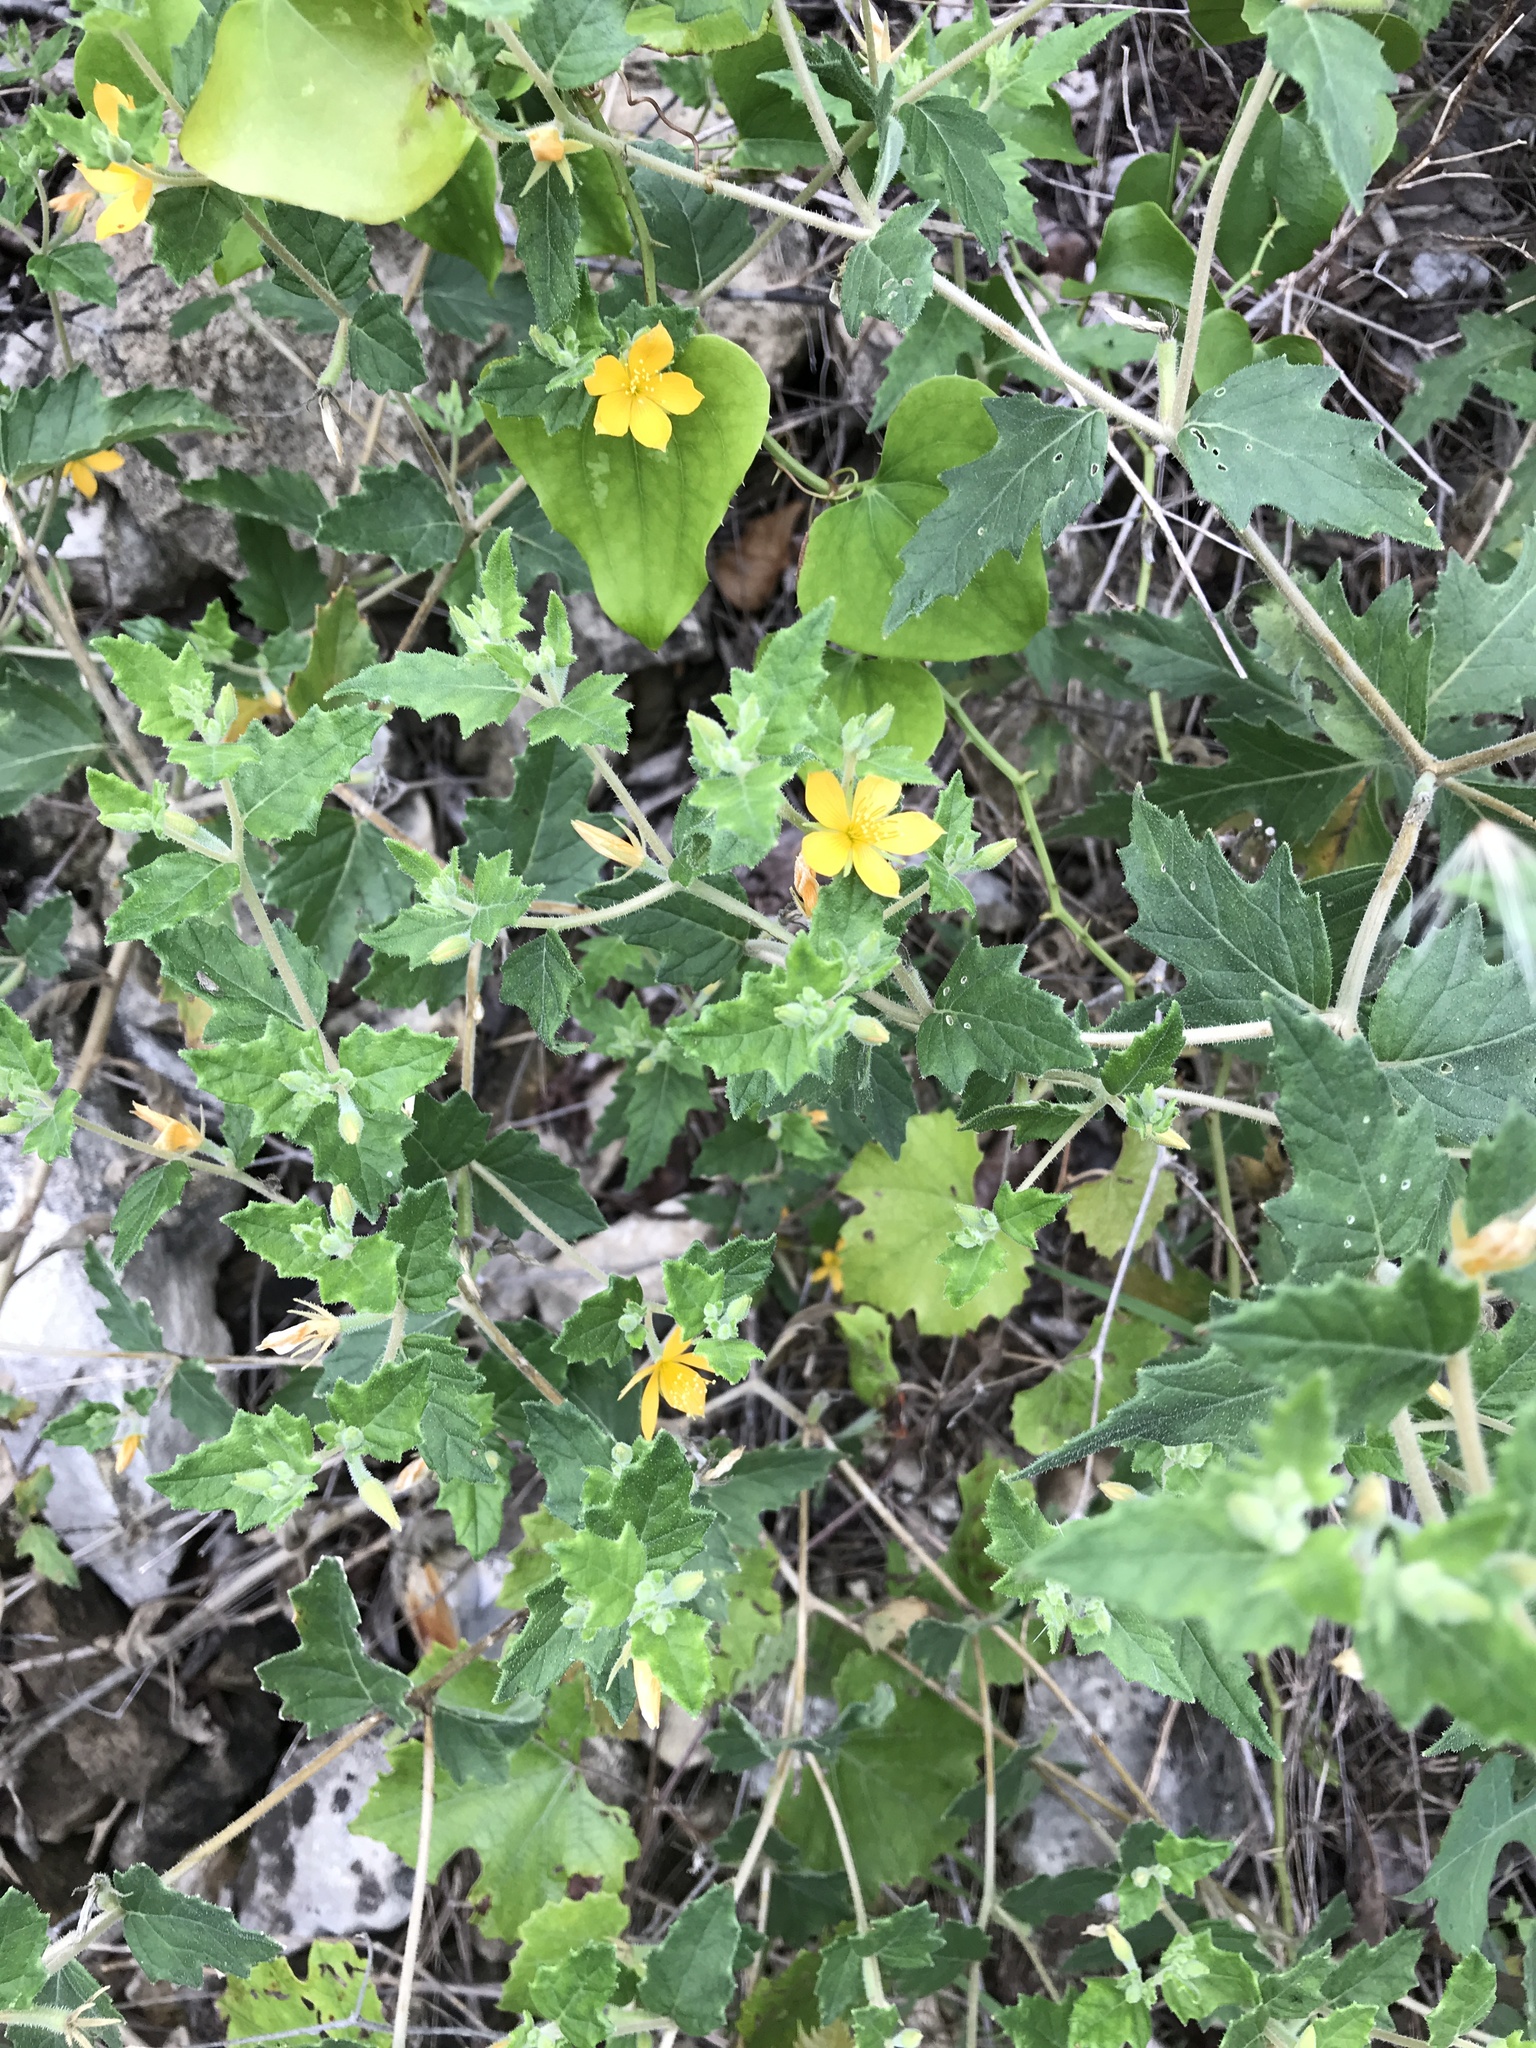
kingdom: Plantae
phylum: Tracheophyta
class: Magnoliopsida
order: Cornales
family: Loasaceae
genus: Mentzelia
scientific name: Mentzelia oligosperma
